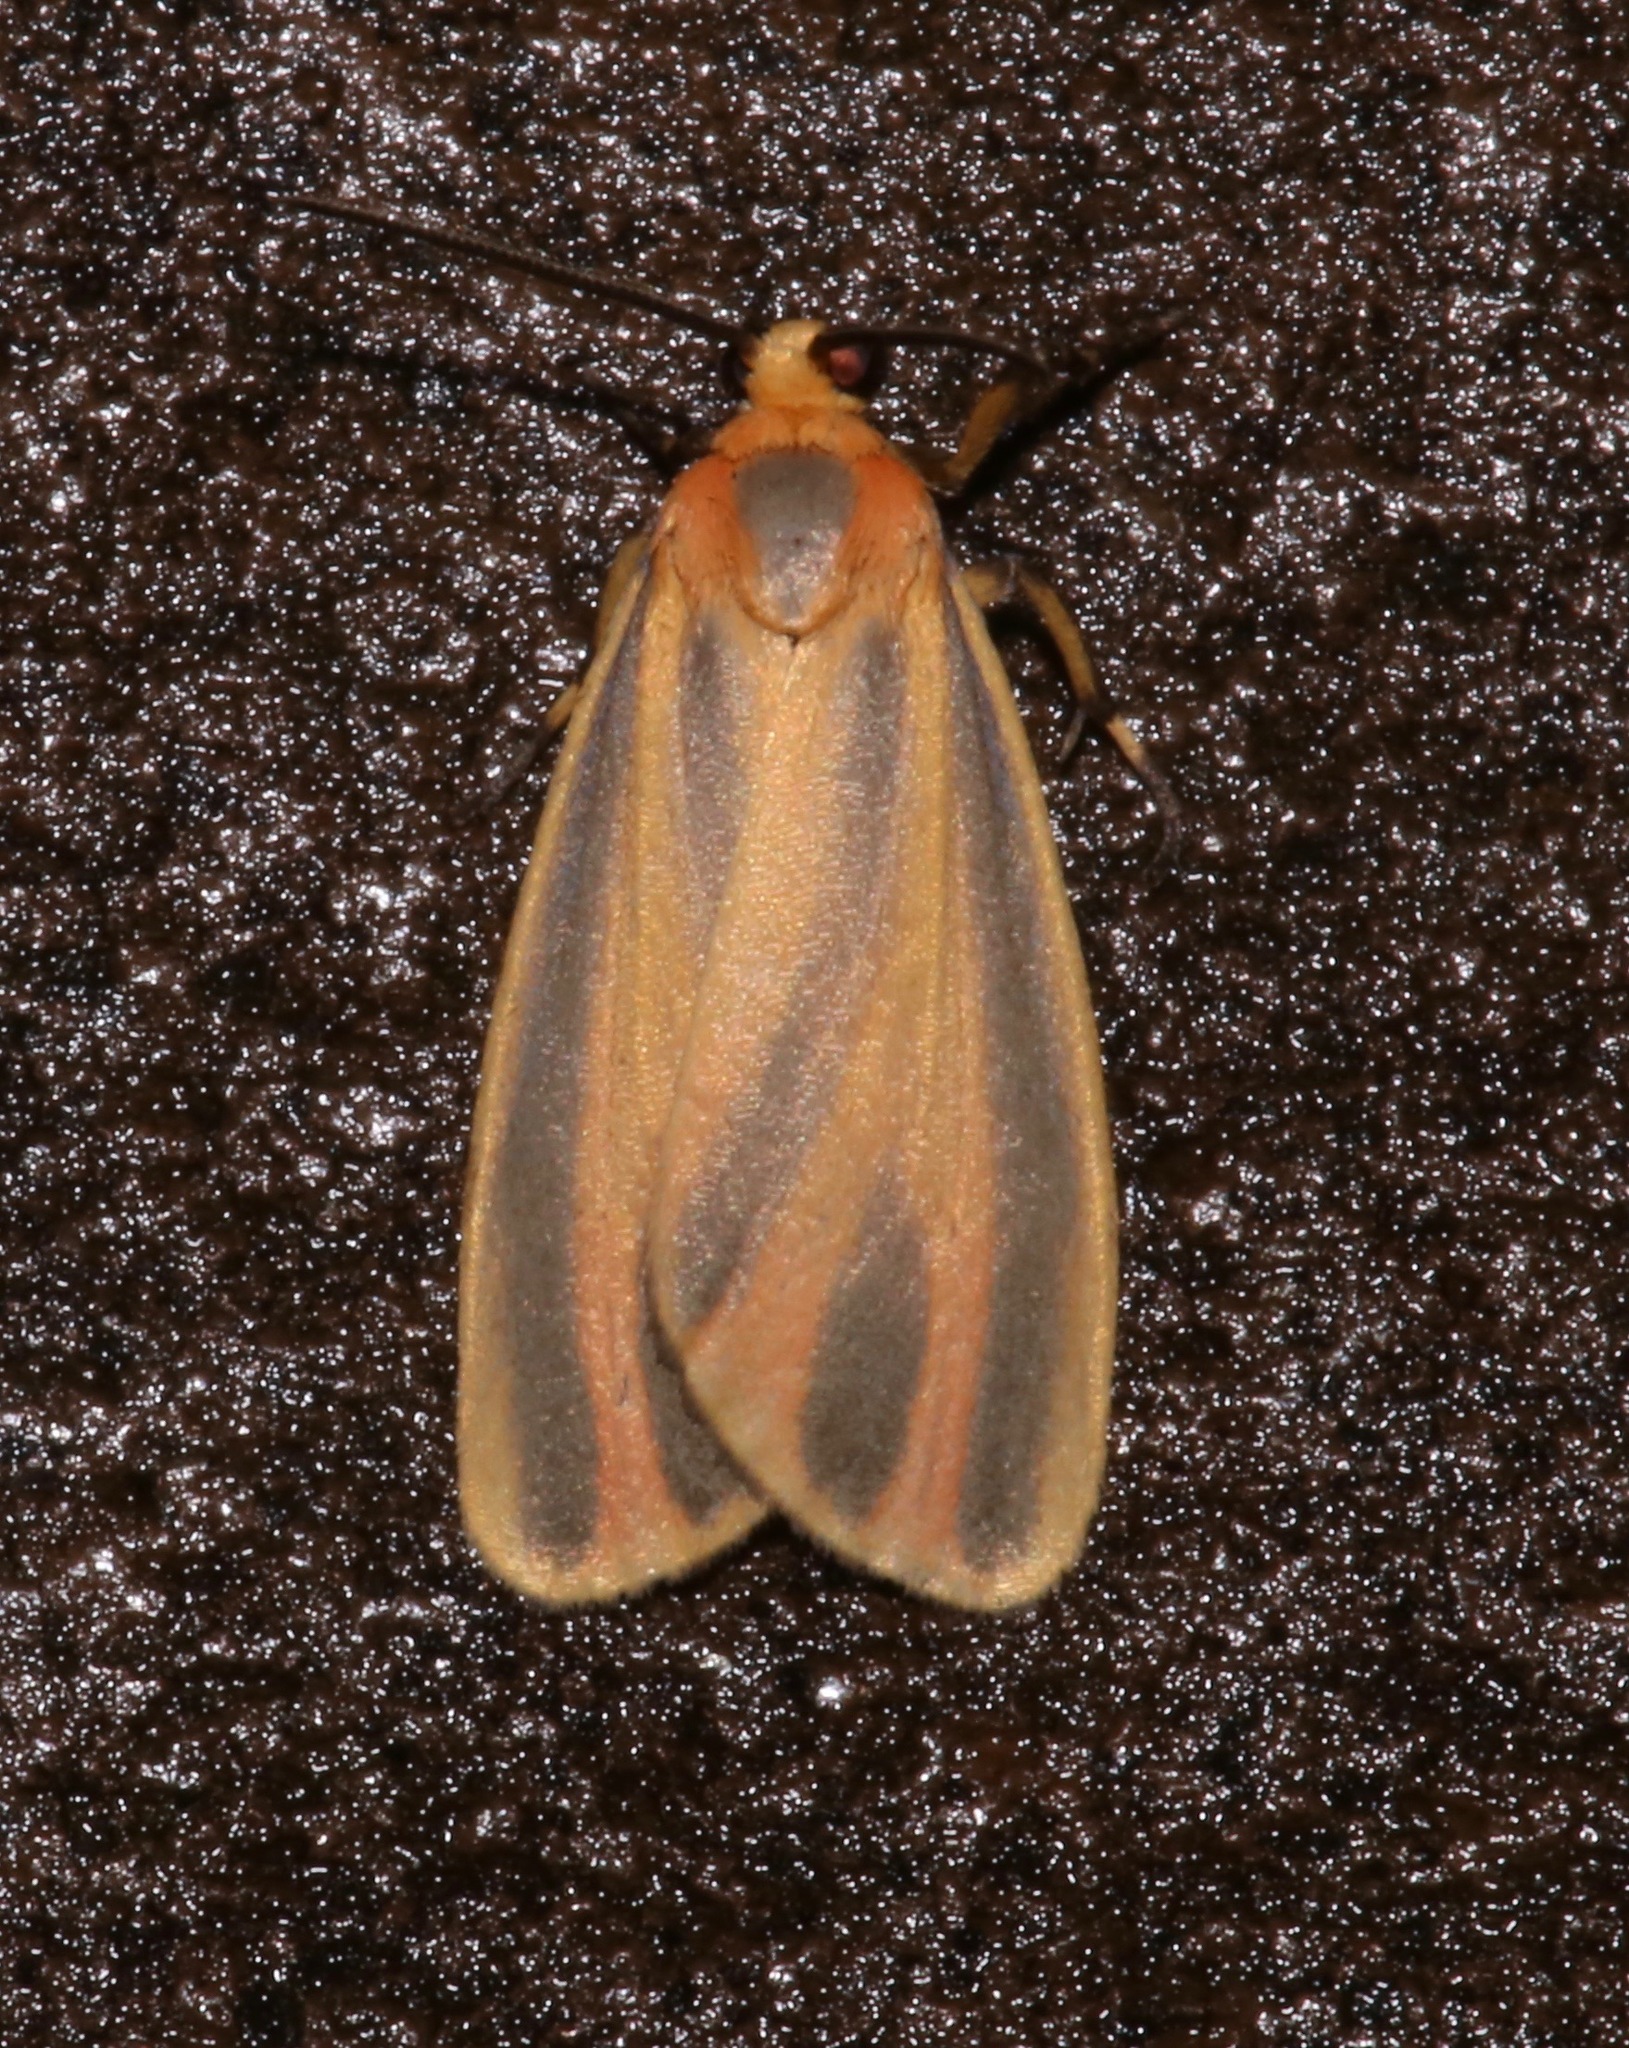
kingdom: Animalia
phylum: Arthropoda
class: Insecta
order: Lepidoptera
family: Erebidae
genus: Hypoprepia
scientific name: Hypoprepia fucosa
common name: Painted lichen moth
